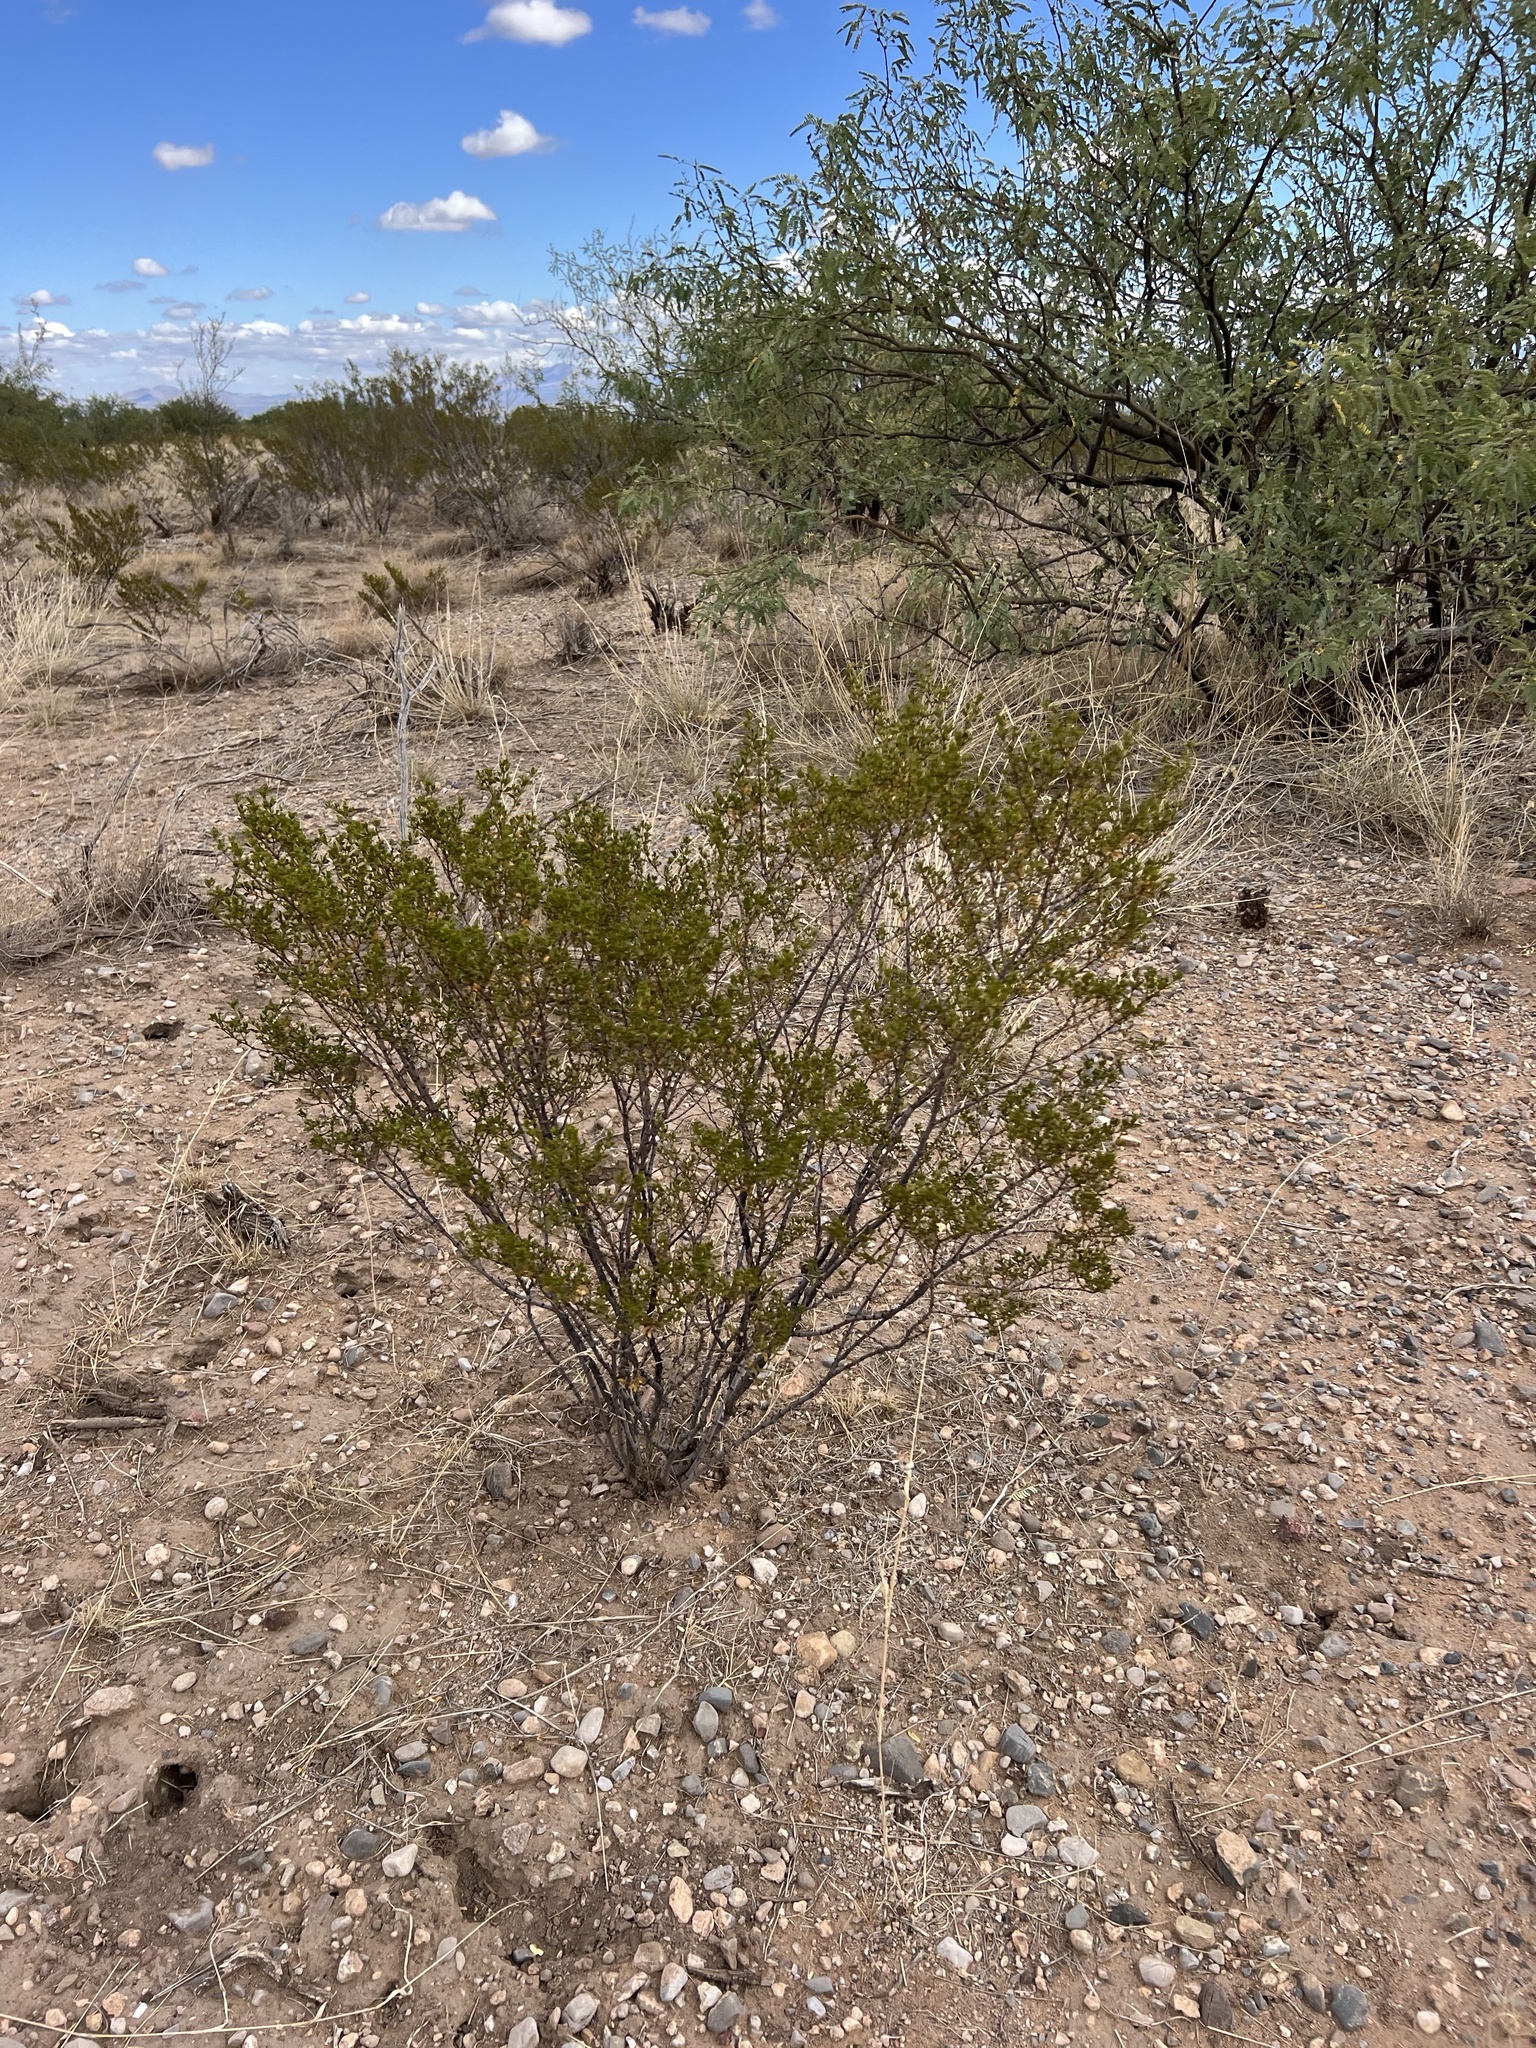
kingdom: Plantae
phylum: Tracheophyta
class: Magnoliopsida
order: Zygophyllales
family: Zygophyllaceae
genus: Larrea
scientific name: Larrea tridentata
